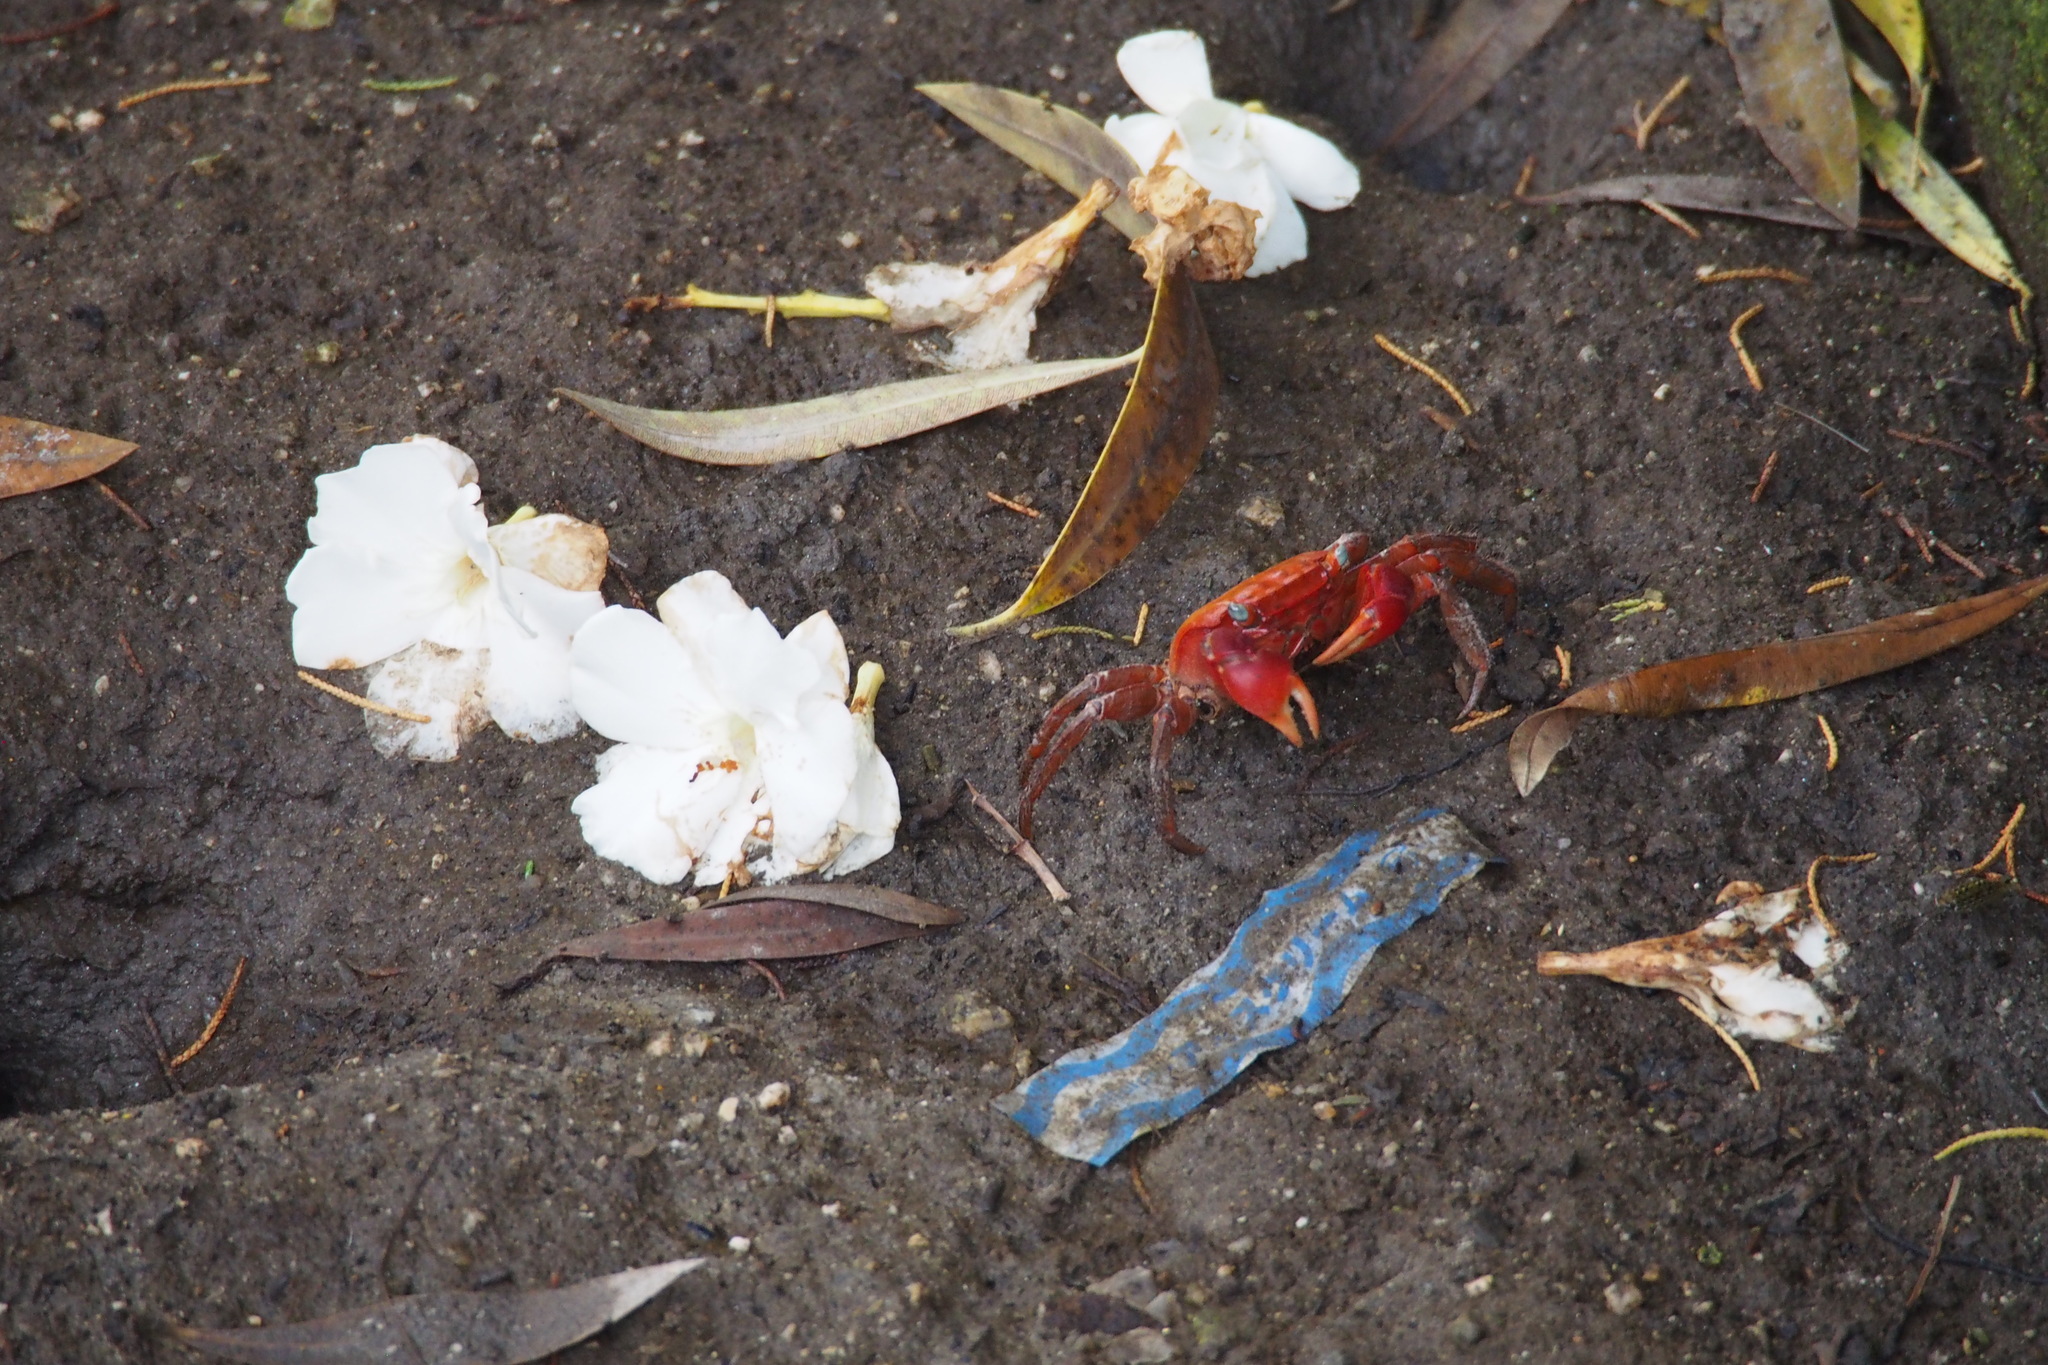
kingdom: Animalia
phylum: Arthropoda
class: Malacostraca
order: Decapoda
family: Sesarmidae
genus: Chiromantes
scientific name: Chiromantes haematocheir
